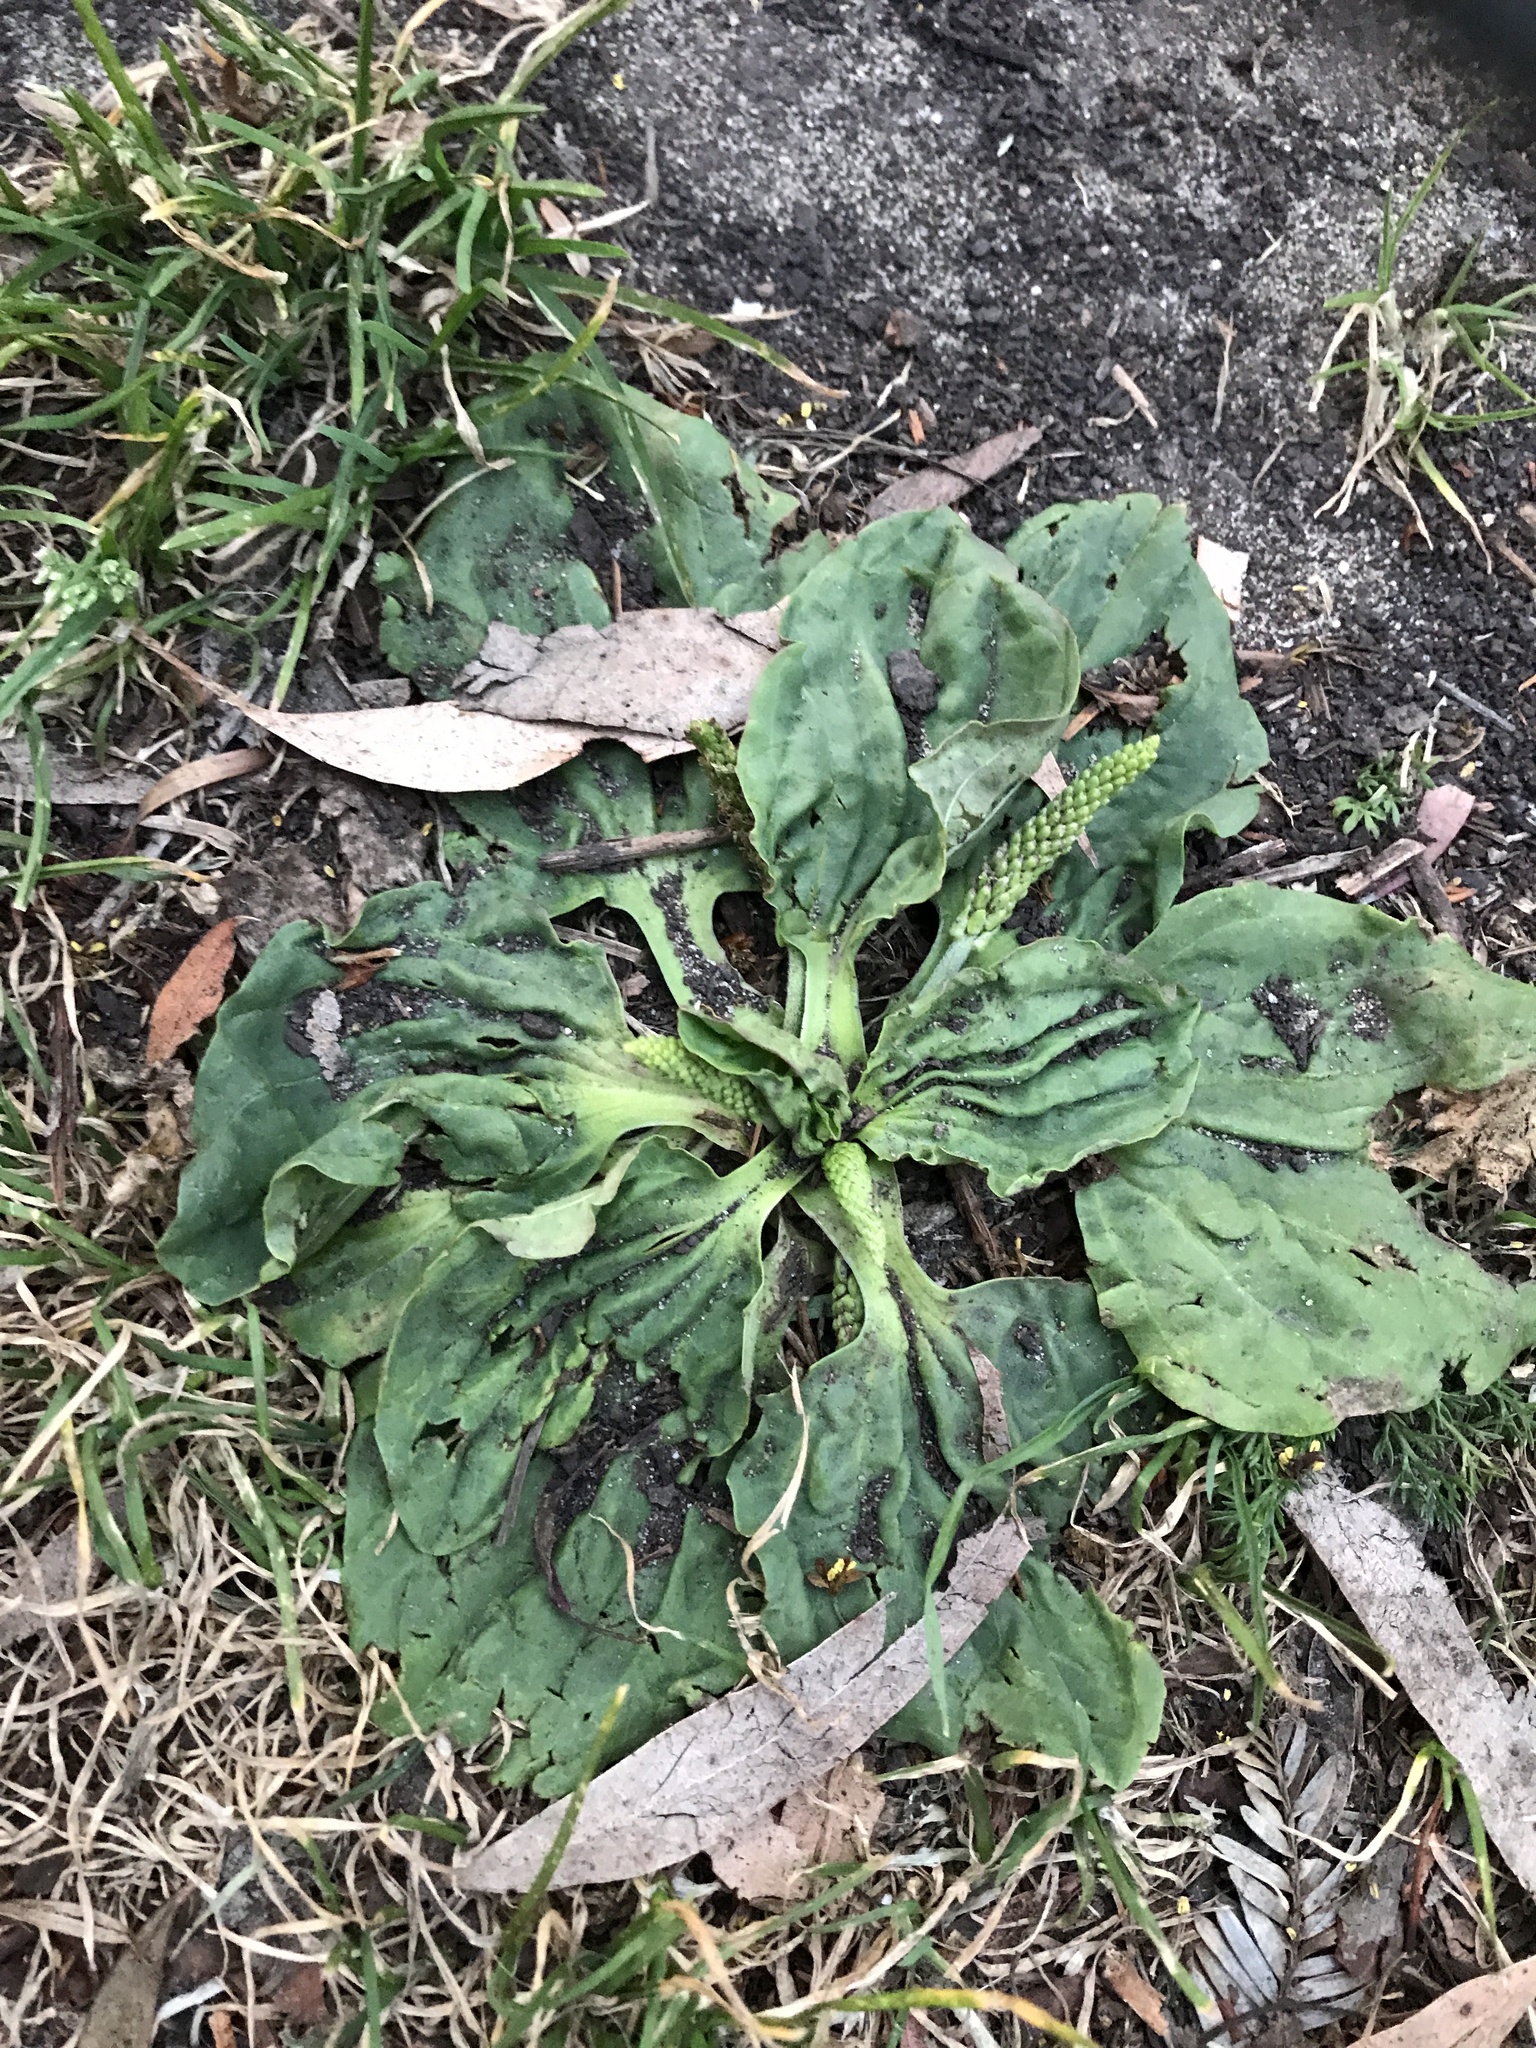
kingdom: Plantae
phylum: Tracheophyta
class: Magnoliopsida
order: Lamiales
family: Plantaginaceae
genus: Plantago
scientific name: Plantago major
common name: Common plantain
